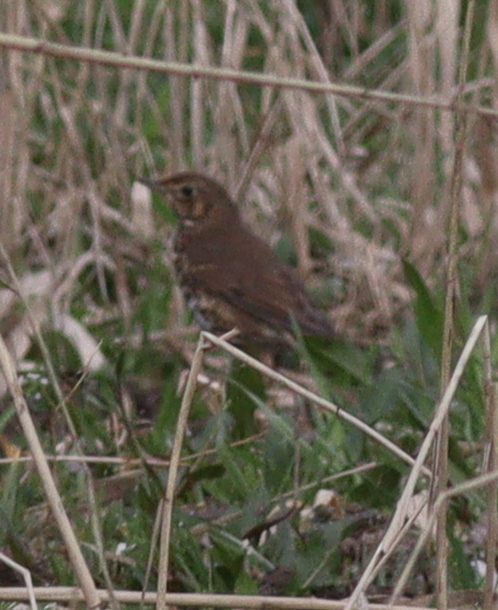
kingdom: Animalia
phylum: Chordata
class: Aves
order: Passeriformes
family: Turdidae
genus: Turdus
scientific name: Turdus philomelos
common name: Song thrush
